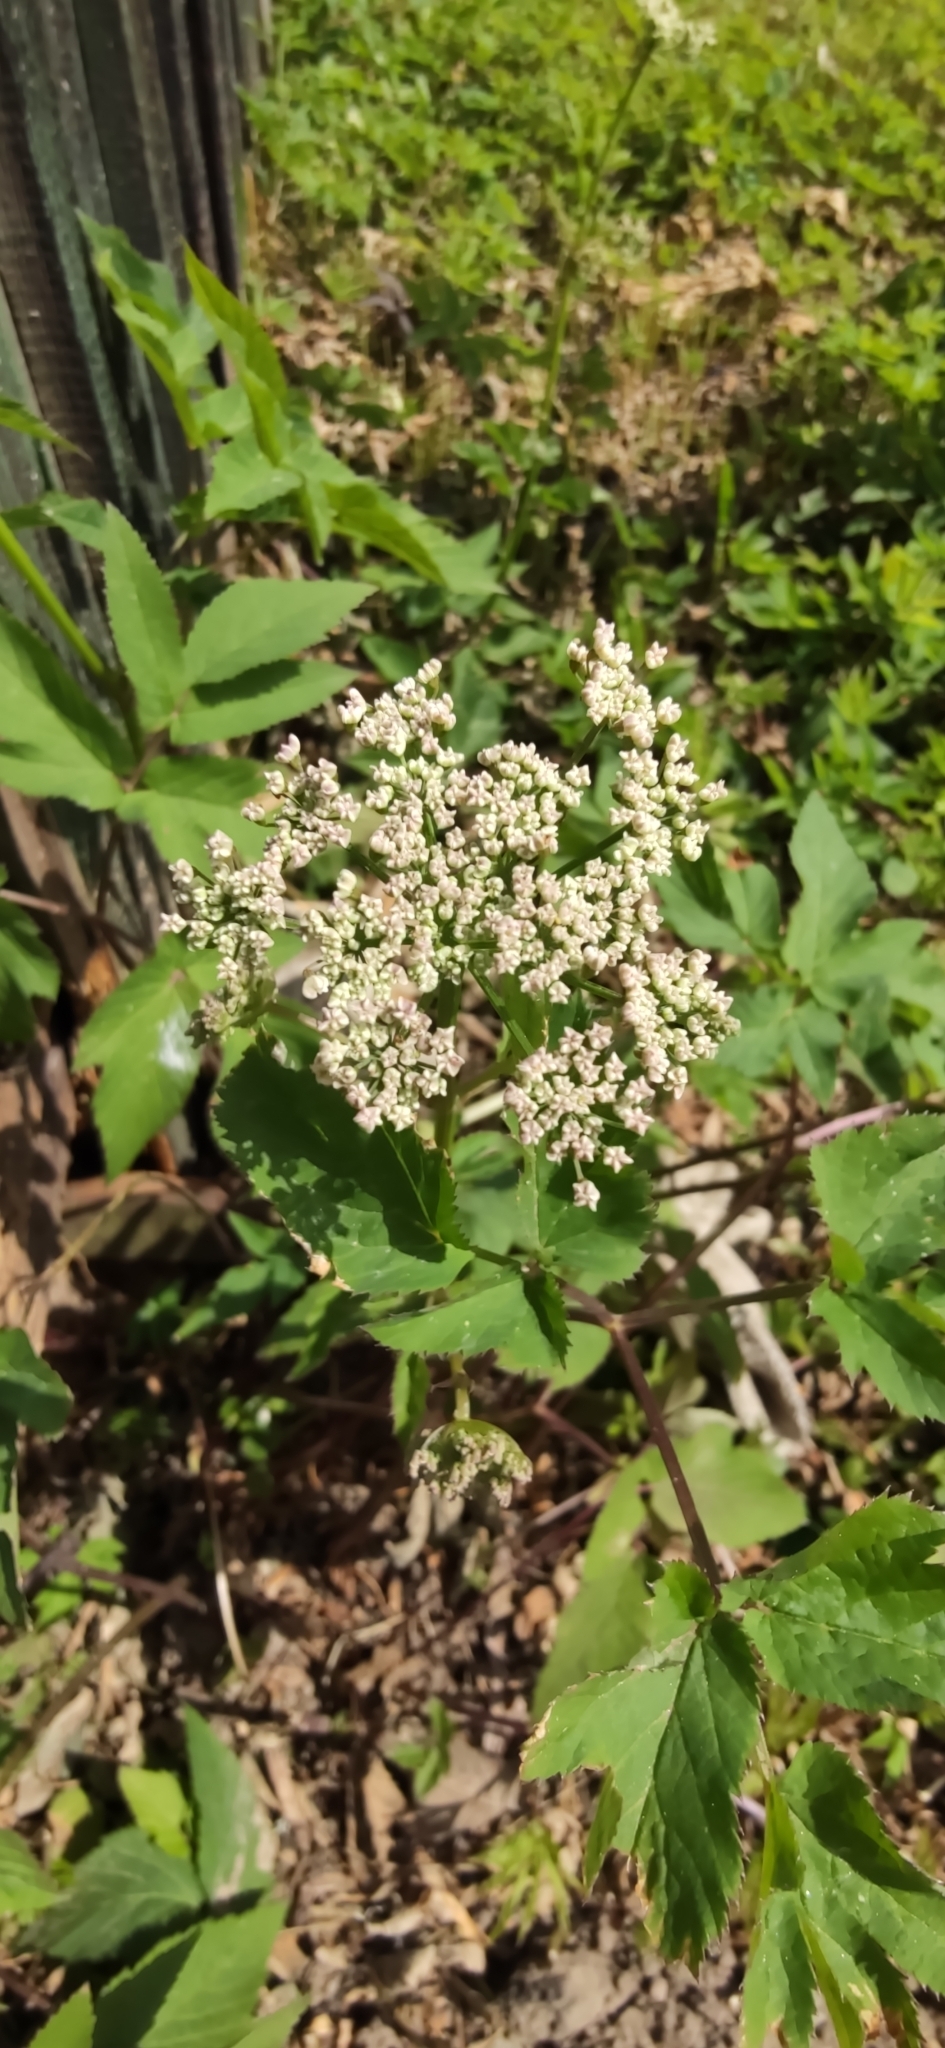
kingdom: Plantae
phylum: Tracheophyta
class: Magnoliopsida
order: Apiales
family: Apiaceae
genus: Aegopodium
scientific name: Aegopodium podagraria
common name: Ground-elder
